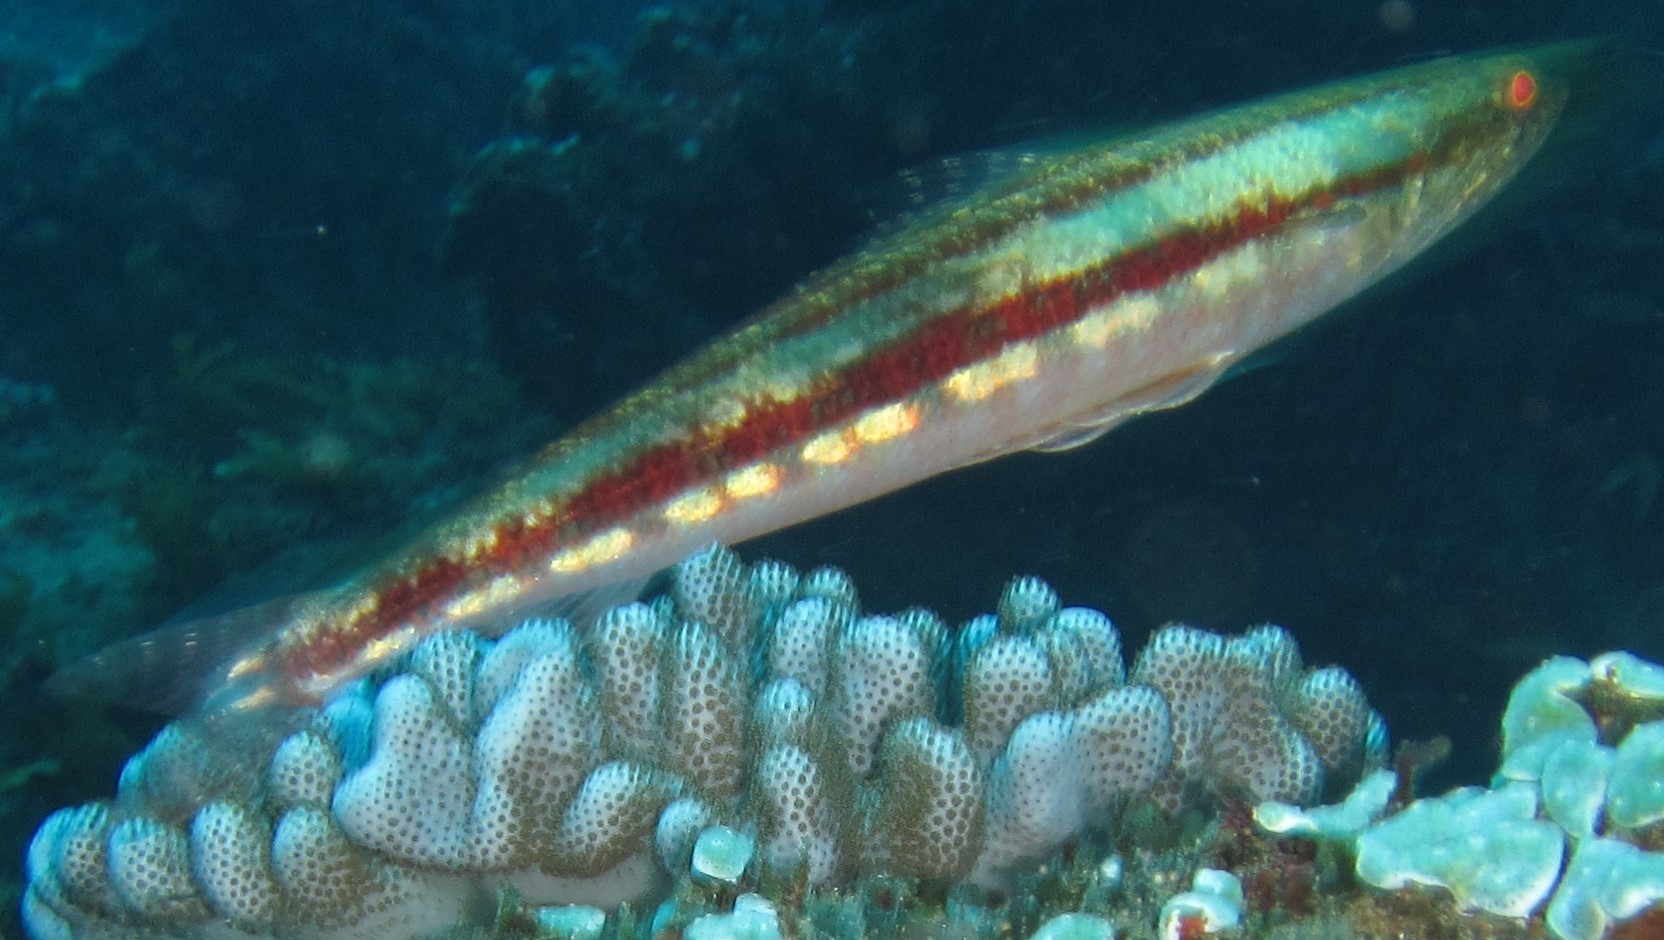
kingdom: Animalia
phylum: Chordata
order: Aulopiformes
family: Synodontidae
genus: Synodus
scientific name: Synodus variegatus
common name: Variegated lizardfish
